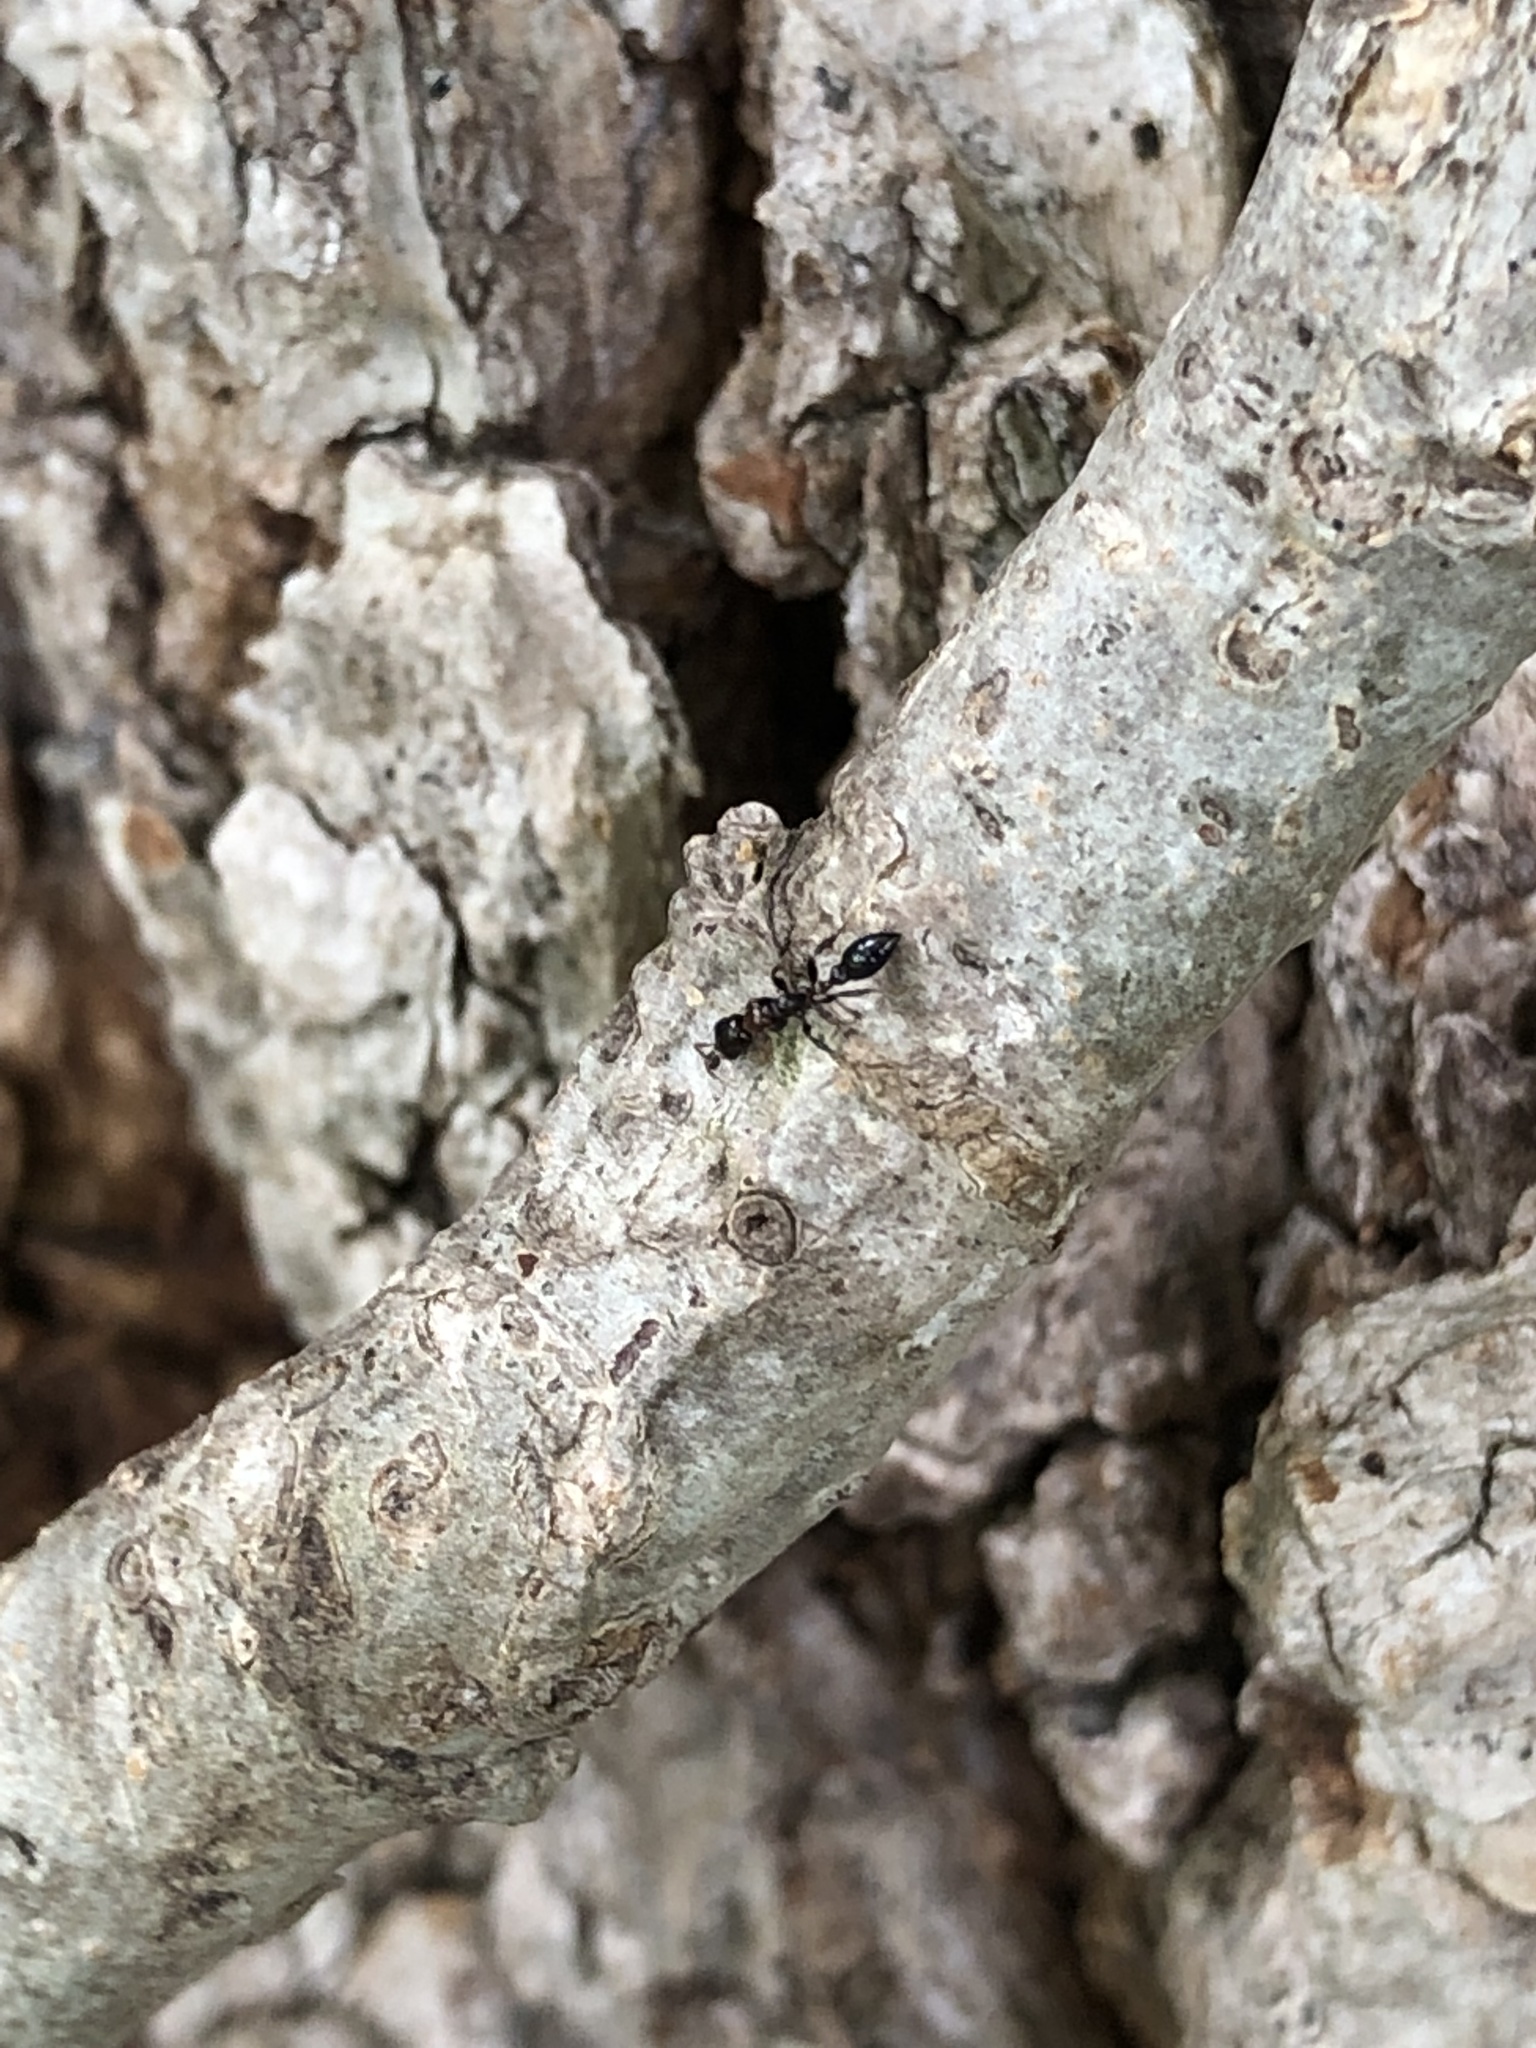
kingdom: Animalia
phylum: Arthropoda
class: Insecta
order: Hymenoptera
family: Formicidae
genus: Pseudomyrmex
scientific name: Pseudomyrmex ejectus
